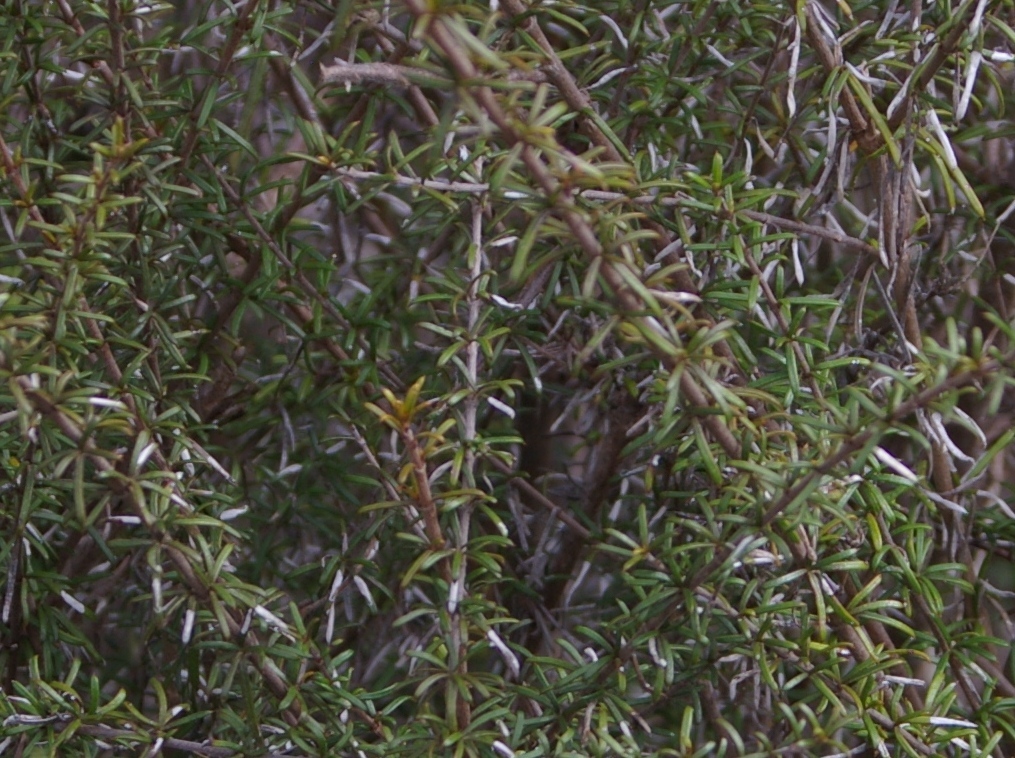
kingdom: Plantae
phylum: Tracheophyta
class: Magnoliopsida
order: Asterales
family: Asteraceae
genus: Trigonopterum
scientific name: Trigonopterum laricifolium
